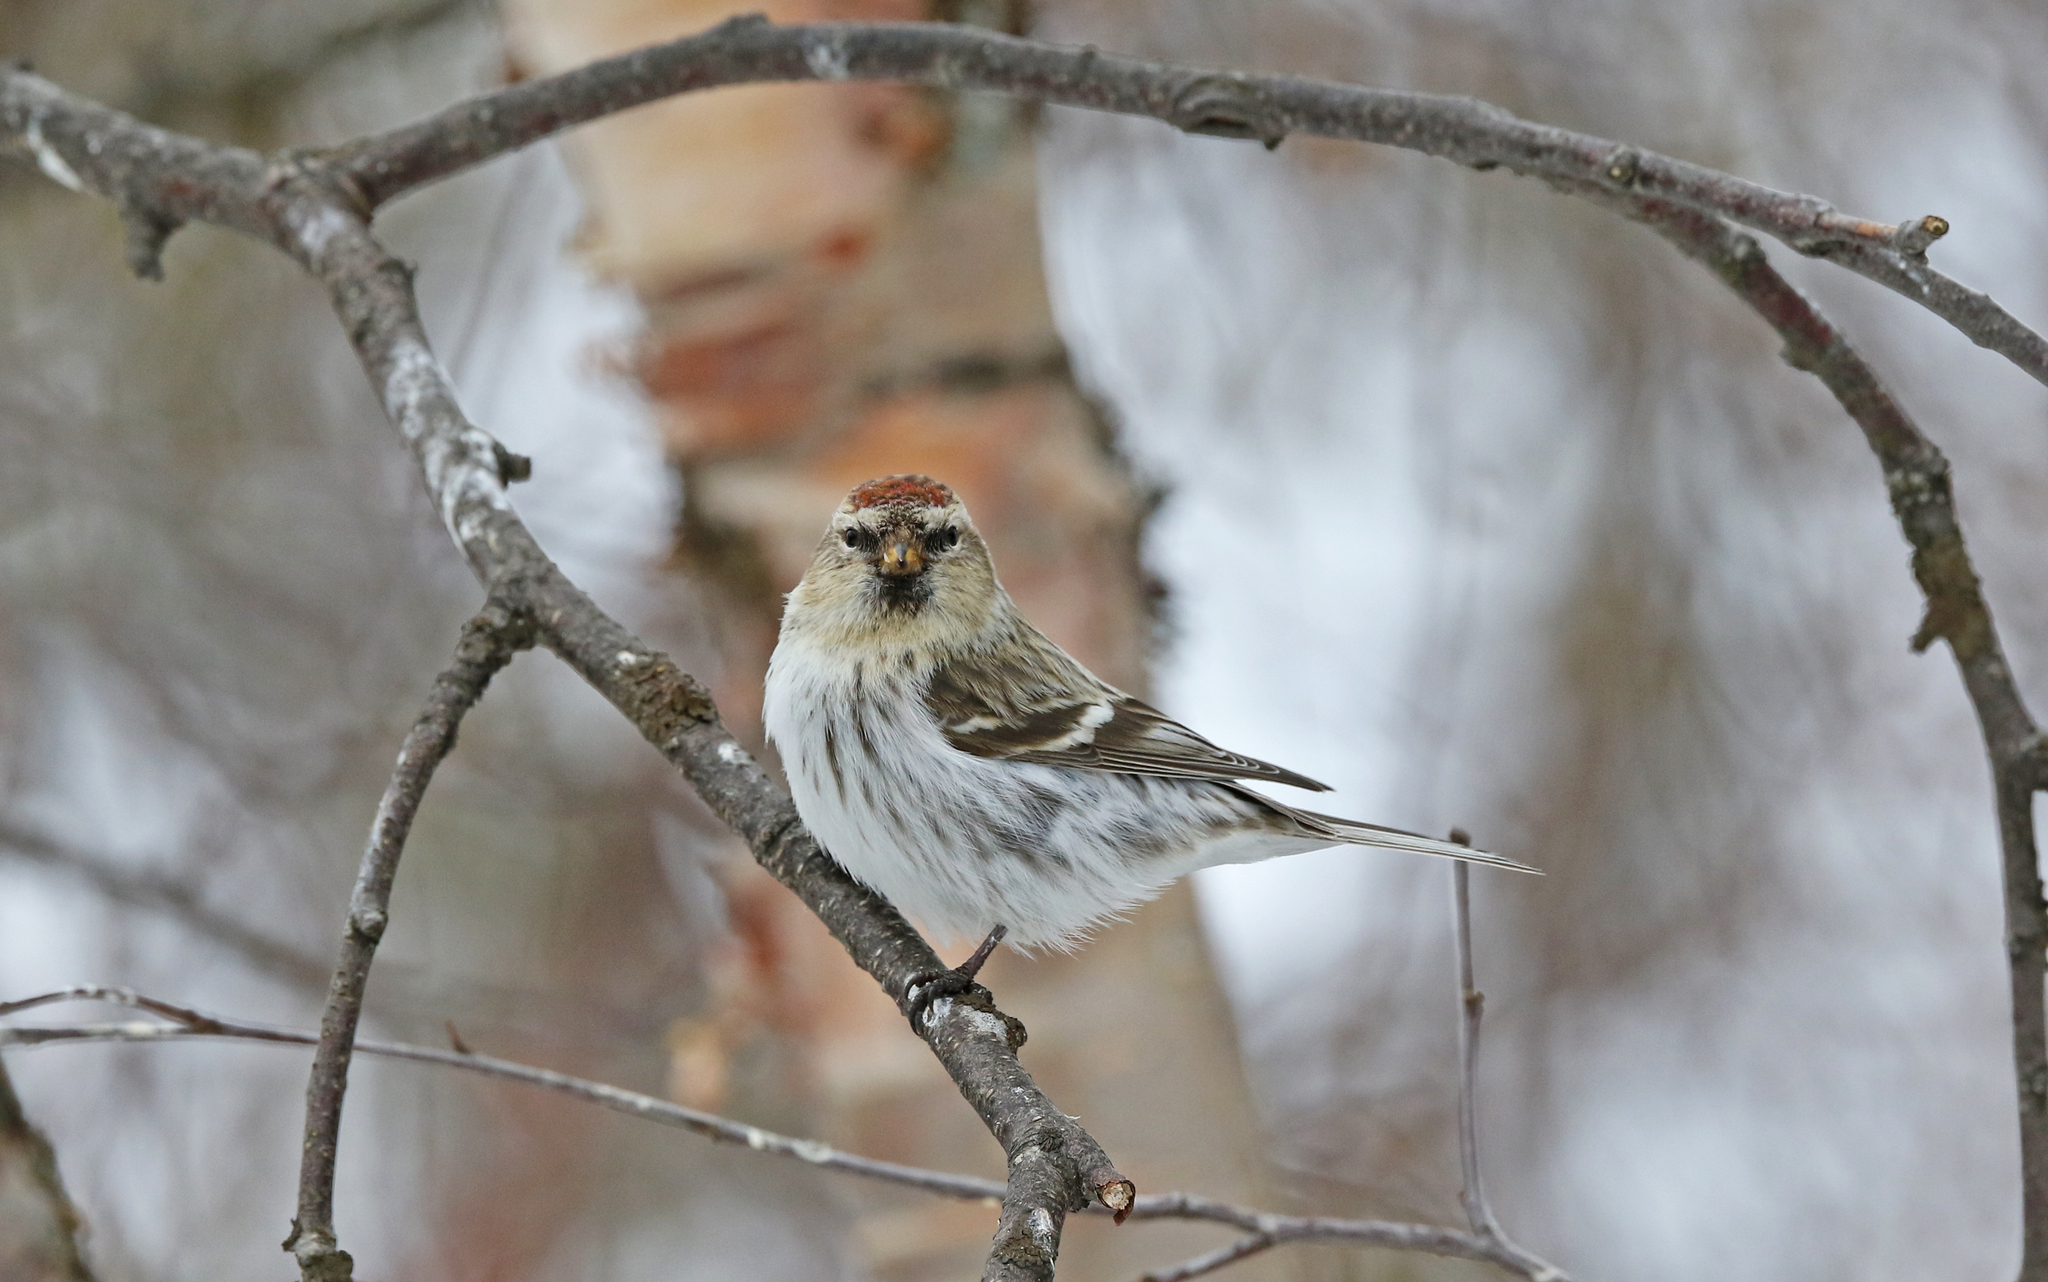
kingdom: Animalia
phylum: Chordata
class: Aves
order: Passeriformes
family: Fringillidae
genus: Acanthis
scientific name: Acanthis flammea
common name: Common redpoll
